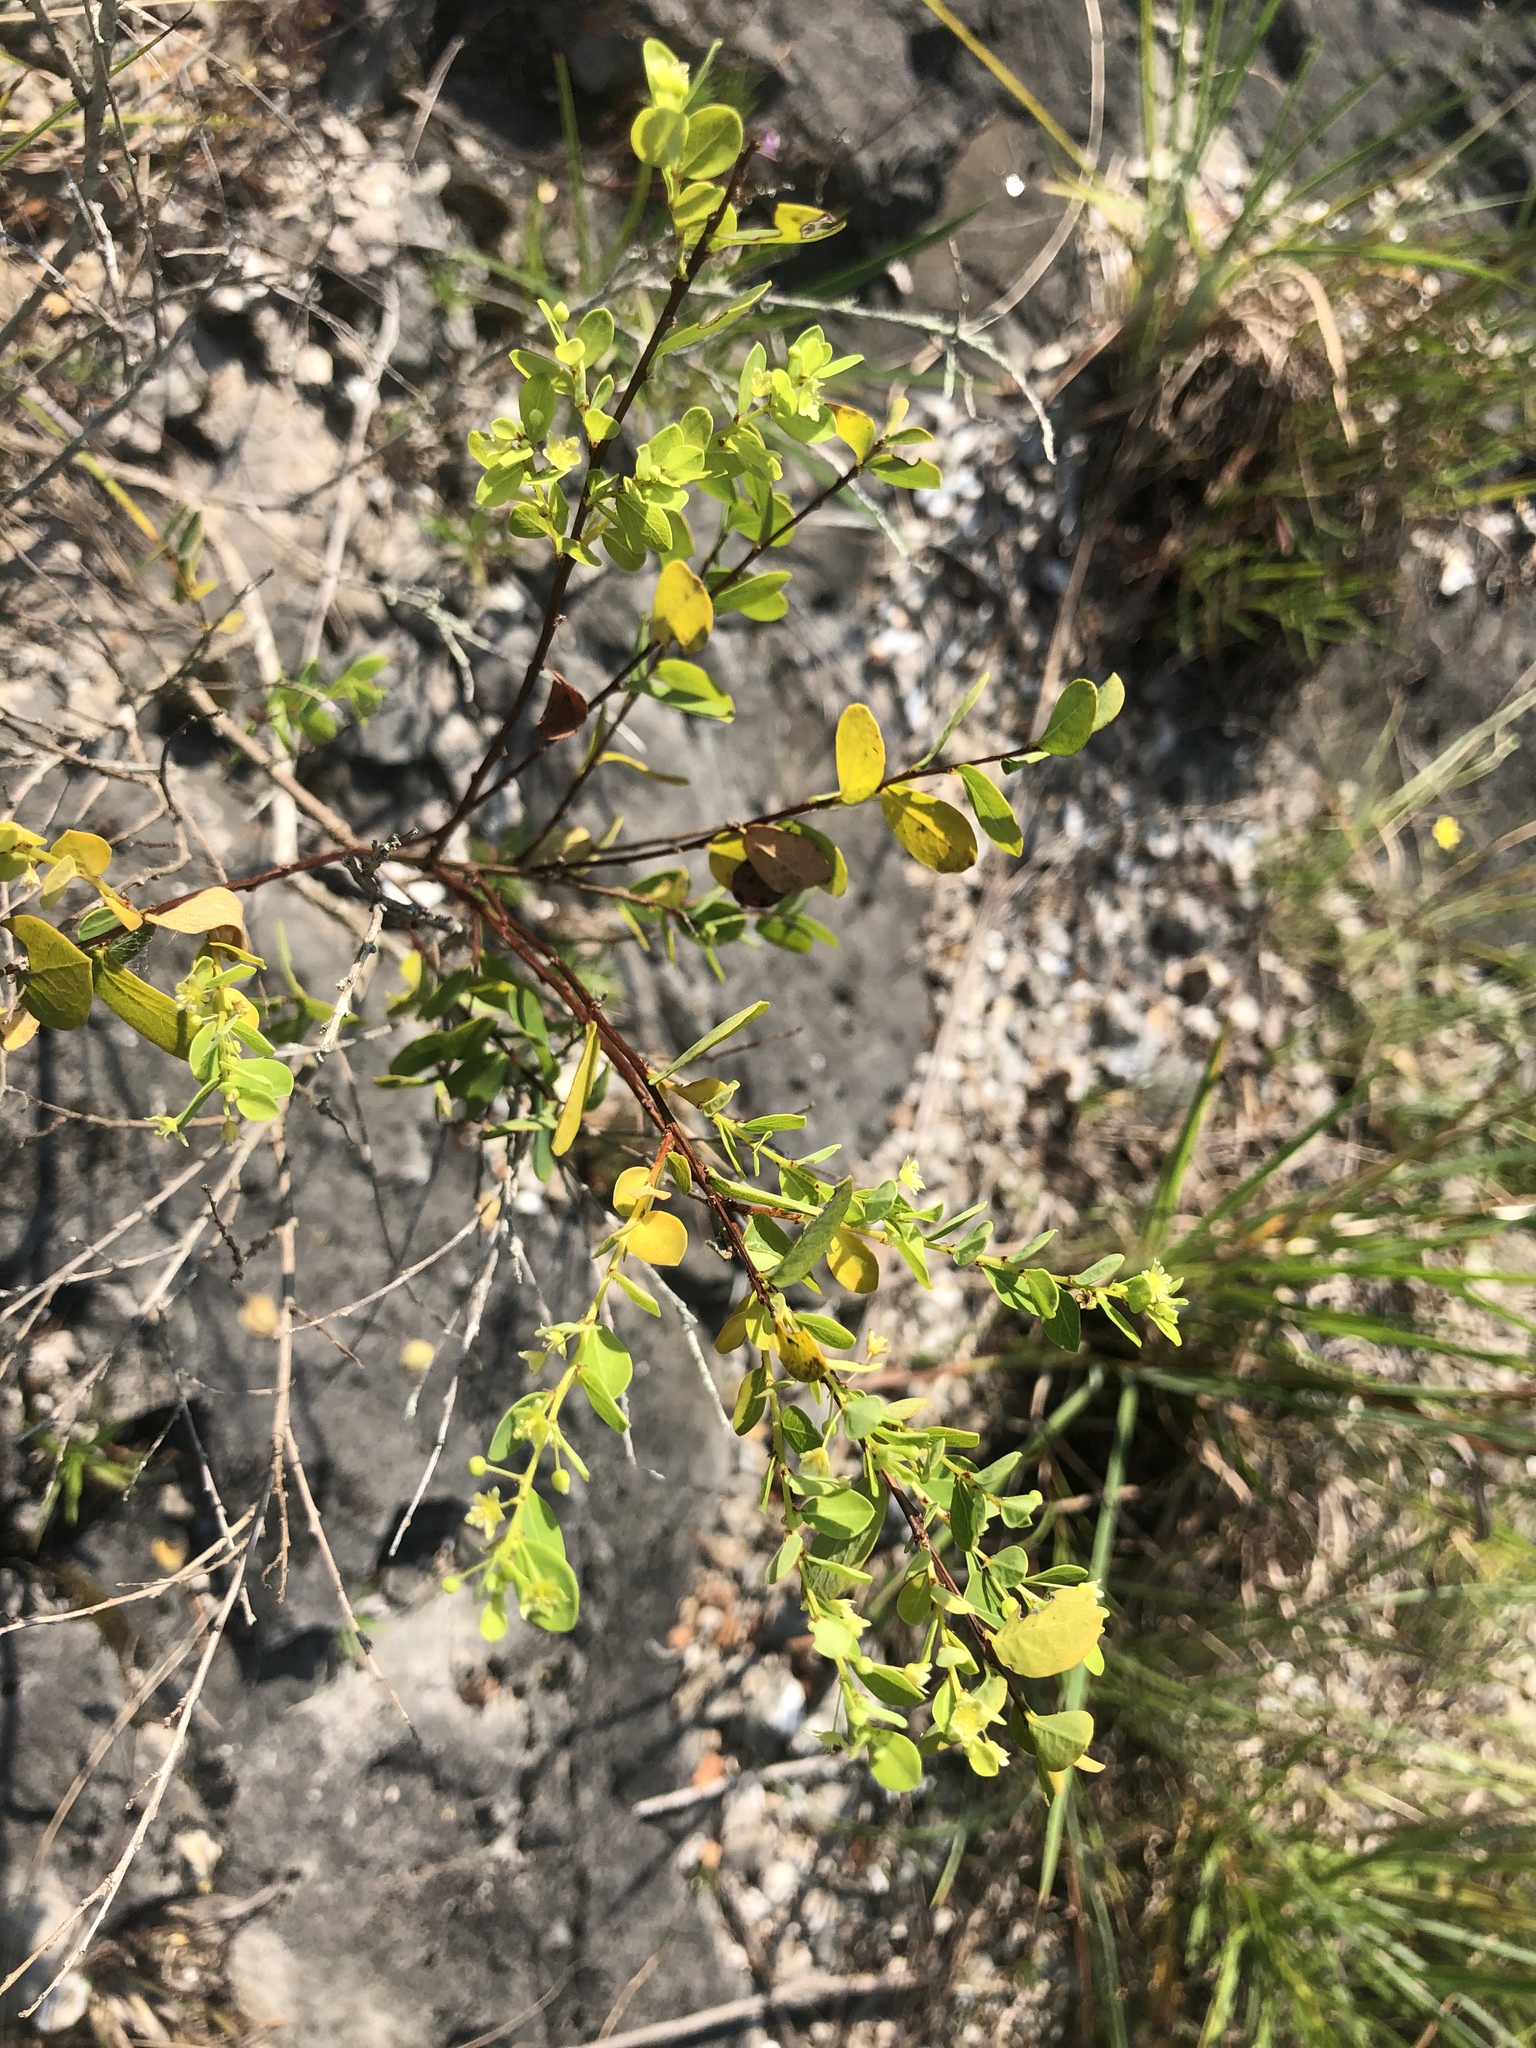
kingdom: Plantae
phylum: Tracheophyta
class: Magnoliopsida
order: Malpighiales
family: Phyllanthaceae
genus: Phyllanthopsis
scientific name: Phyllanthopsis phyllanthoides
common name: Missouri maidenbush
